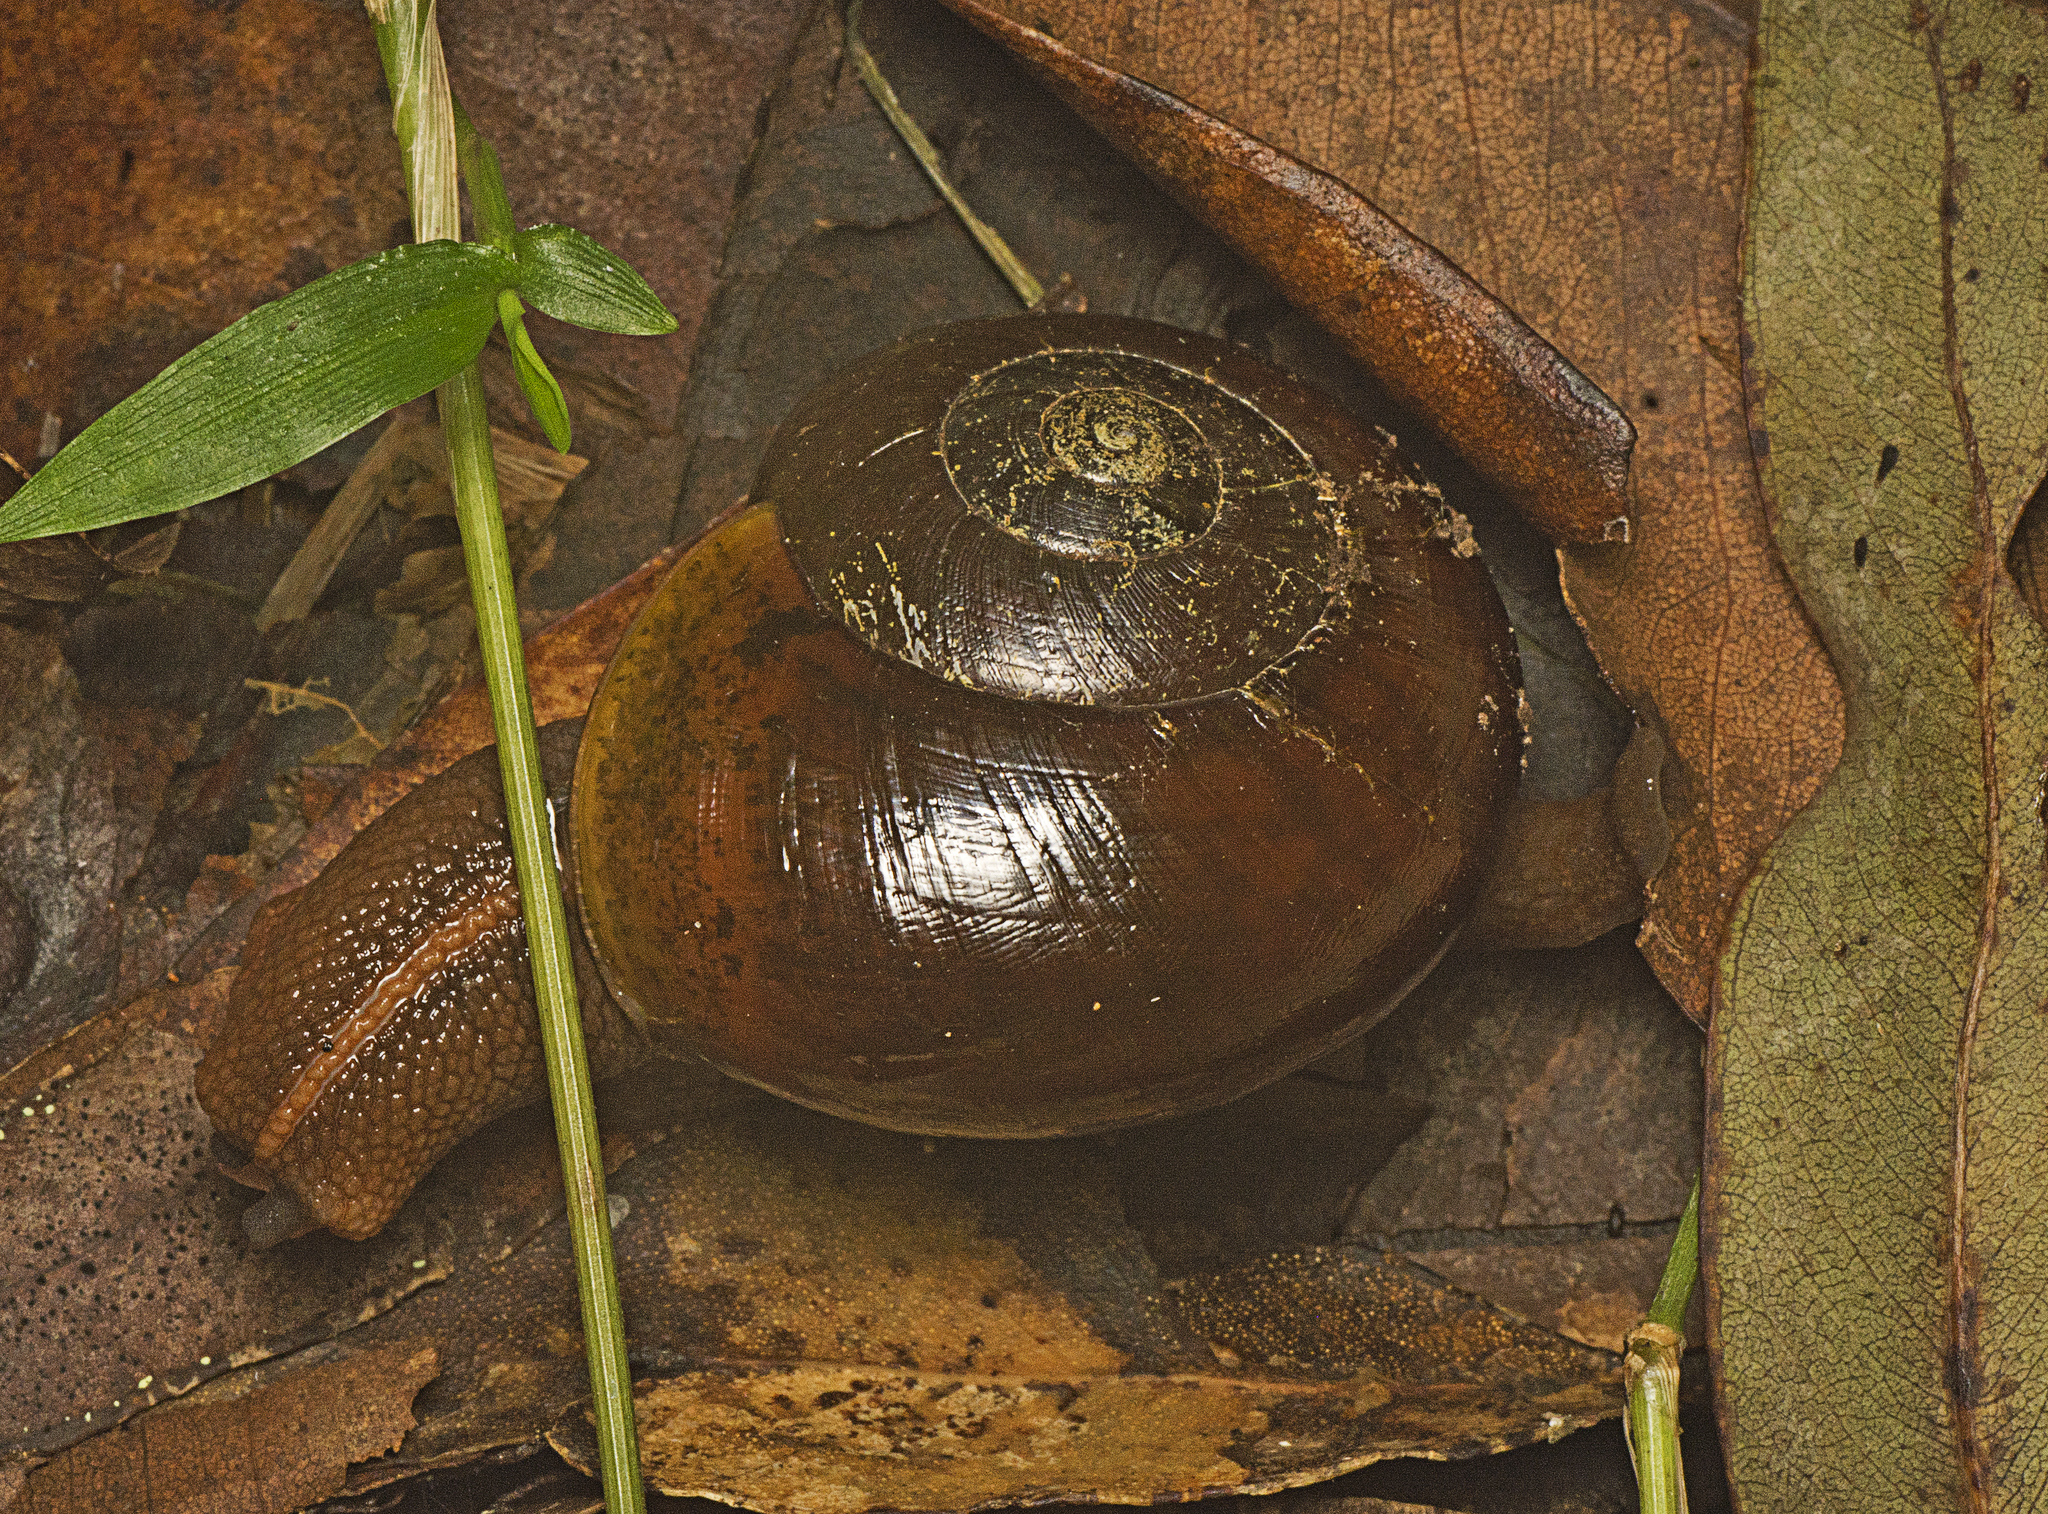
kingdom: Animalia
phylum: Mollusca
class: Gastropoda
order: Stylommatophora
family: Rhytididae
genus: Terrycarlessia
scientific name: Terrycarlessia turbinata
